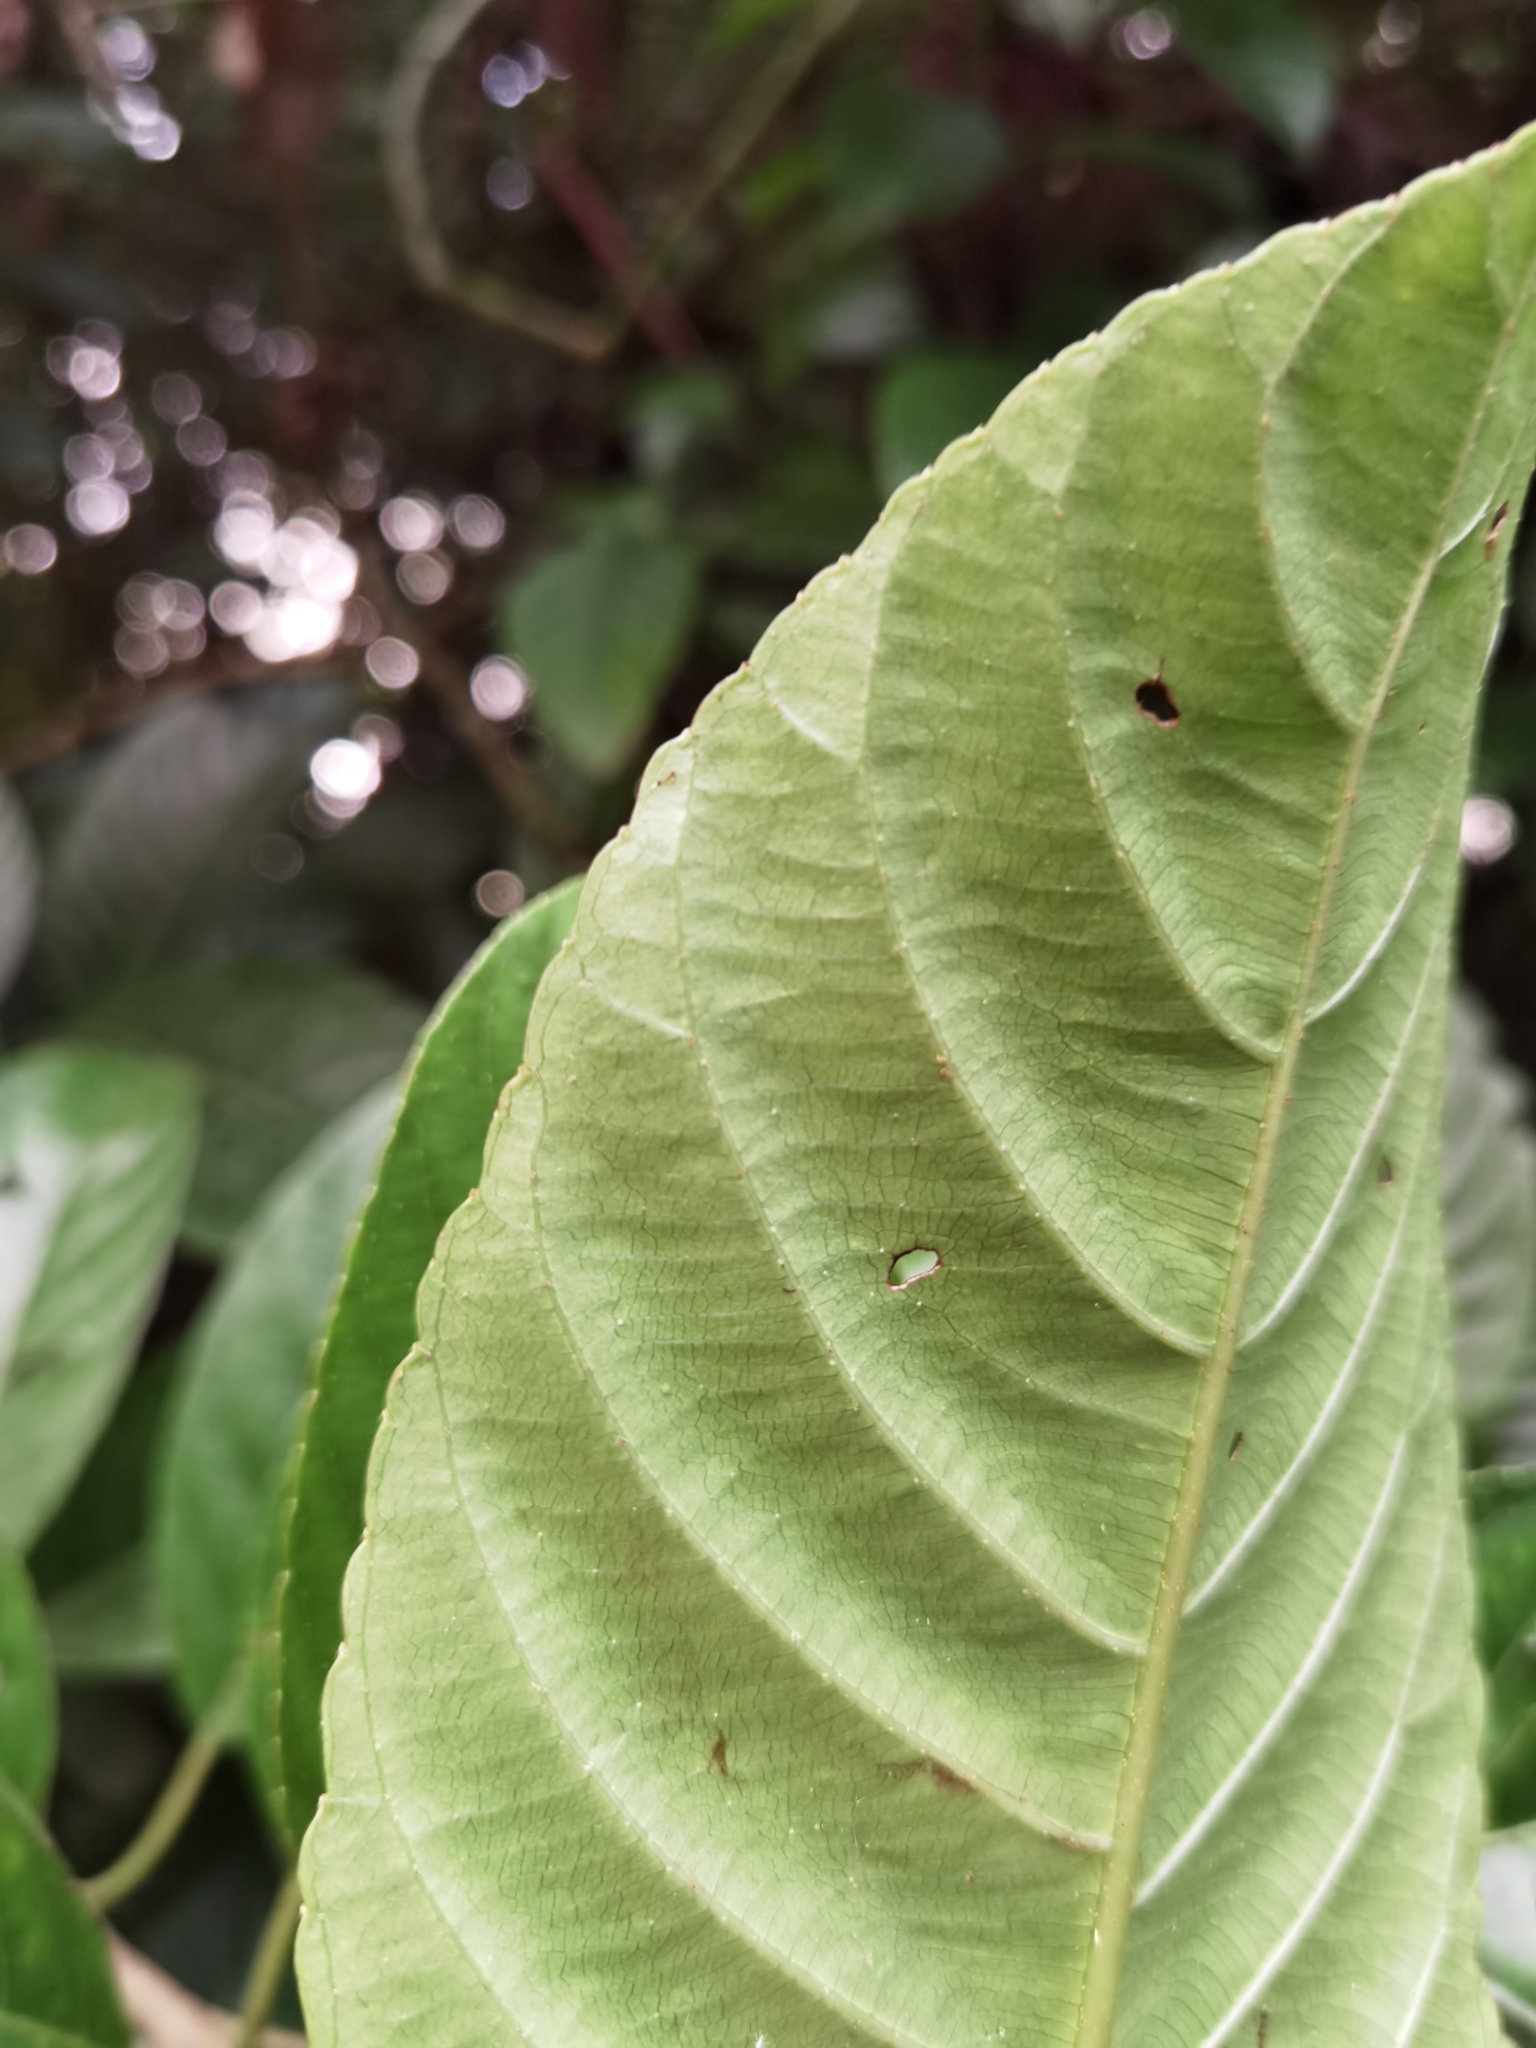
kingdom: Plantae
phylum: Tracheophyta
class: Magnoliopsida
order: Ericales
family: Actinidiaceae
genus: Saurauia
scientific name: Saurauia yasicae
